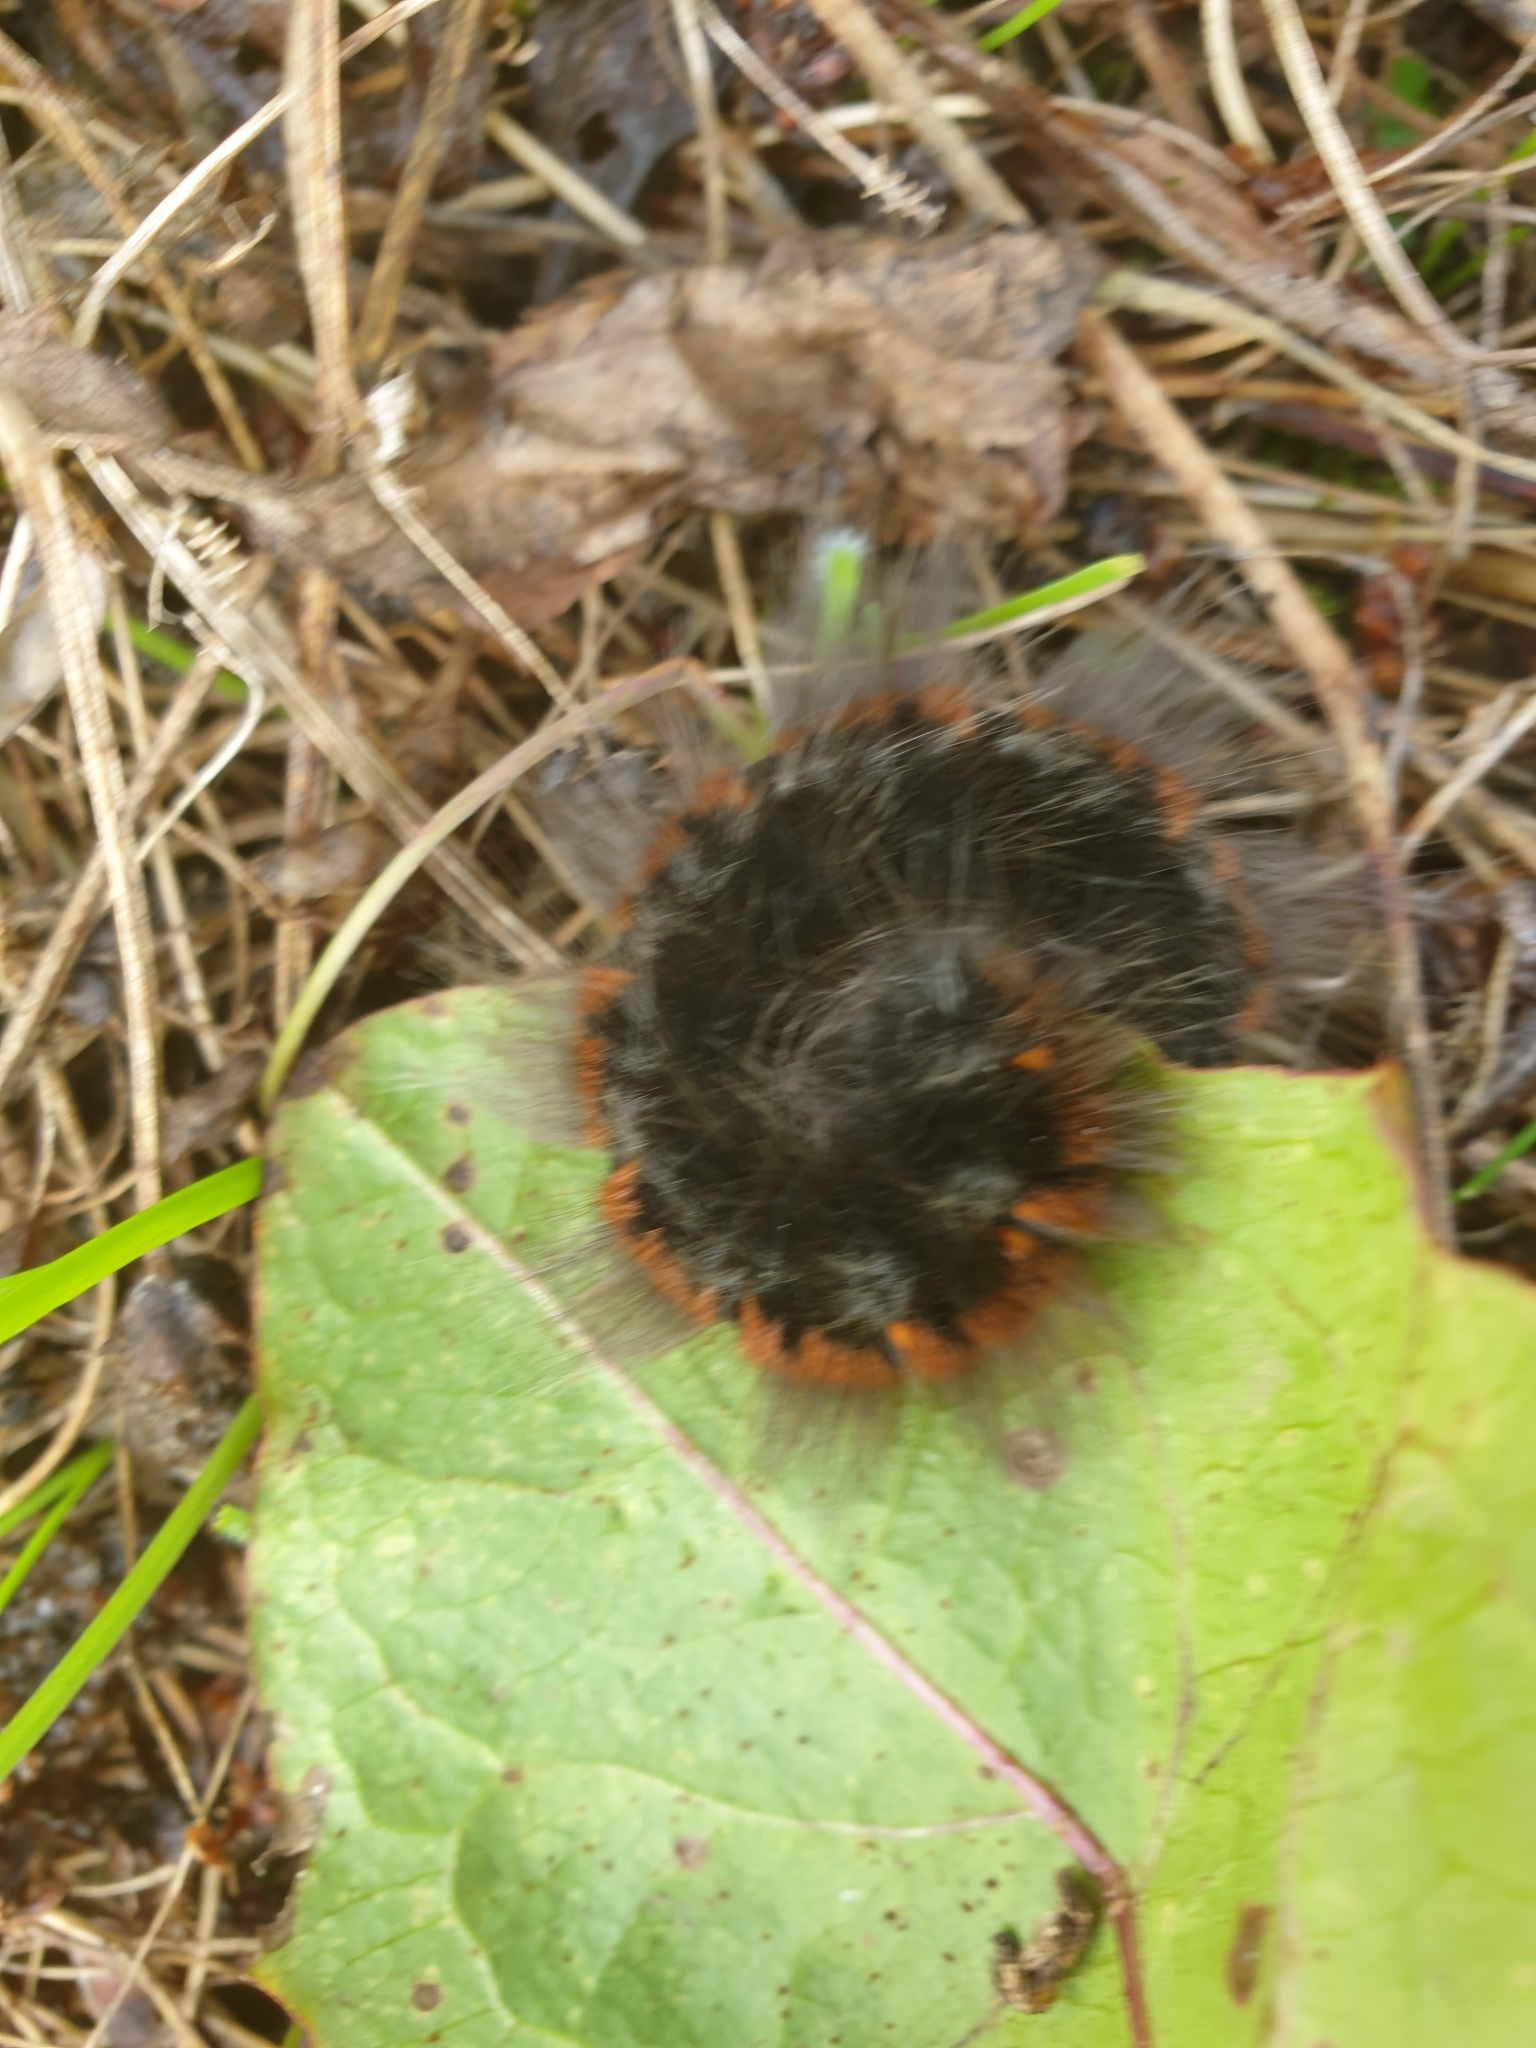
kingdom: Animalia
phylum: Arthropoda
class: Insecta
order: Lepidoptera
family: Lasiocampidae
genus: Macrothylacia
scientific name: Macrothylacia rubi
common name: Fox moth
